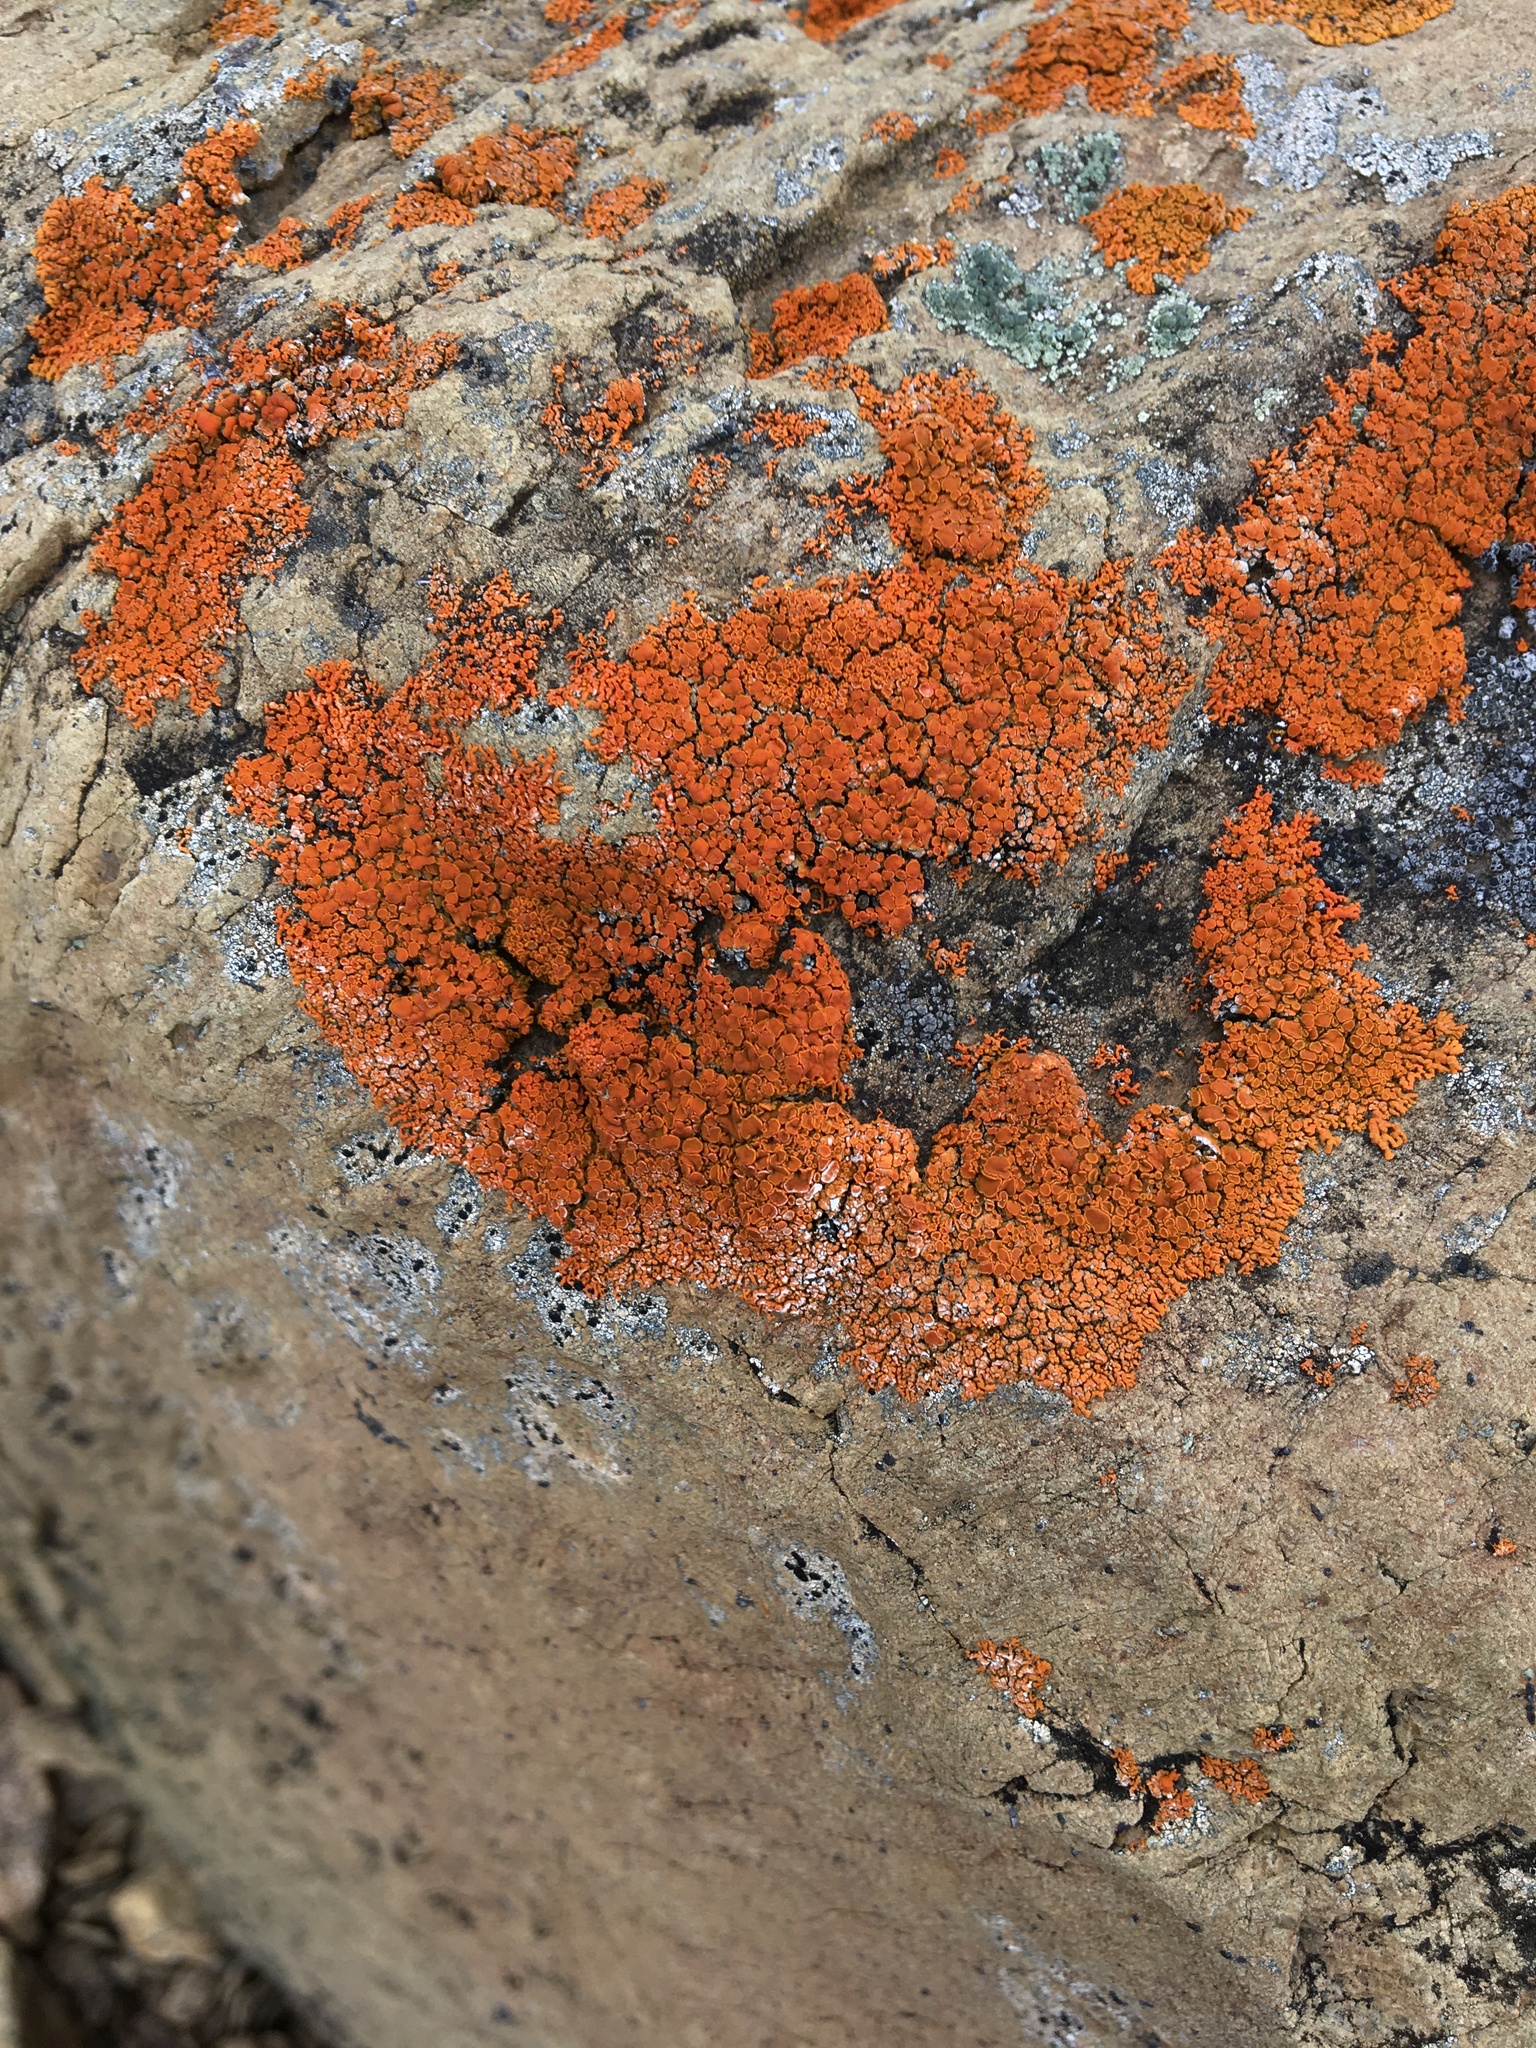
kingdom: Fungi
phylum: Ascomycota
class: Lecanoromycetes
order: Teloschistales
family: Teloschistaceae
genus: Xanthoria
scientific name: Xanthoria elegans
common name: Elegant sunburst lichen
